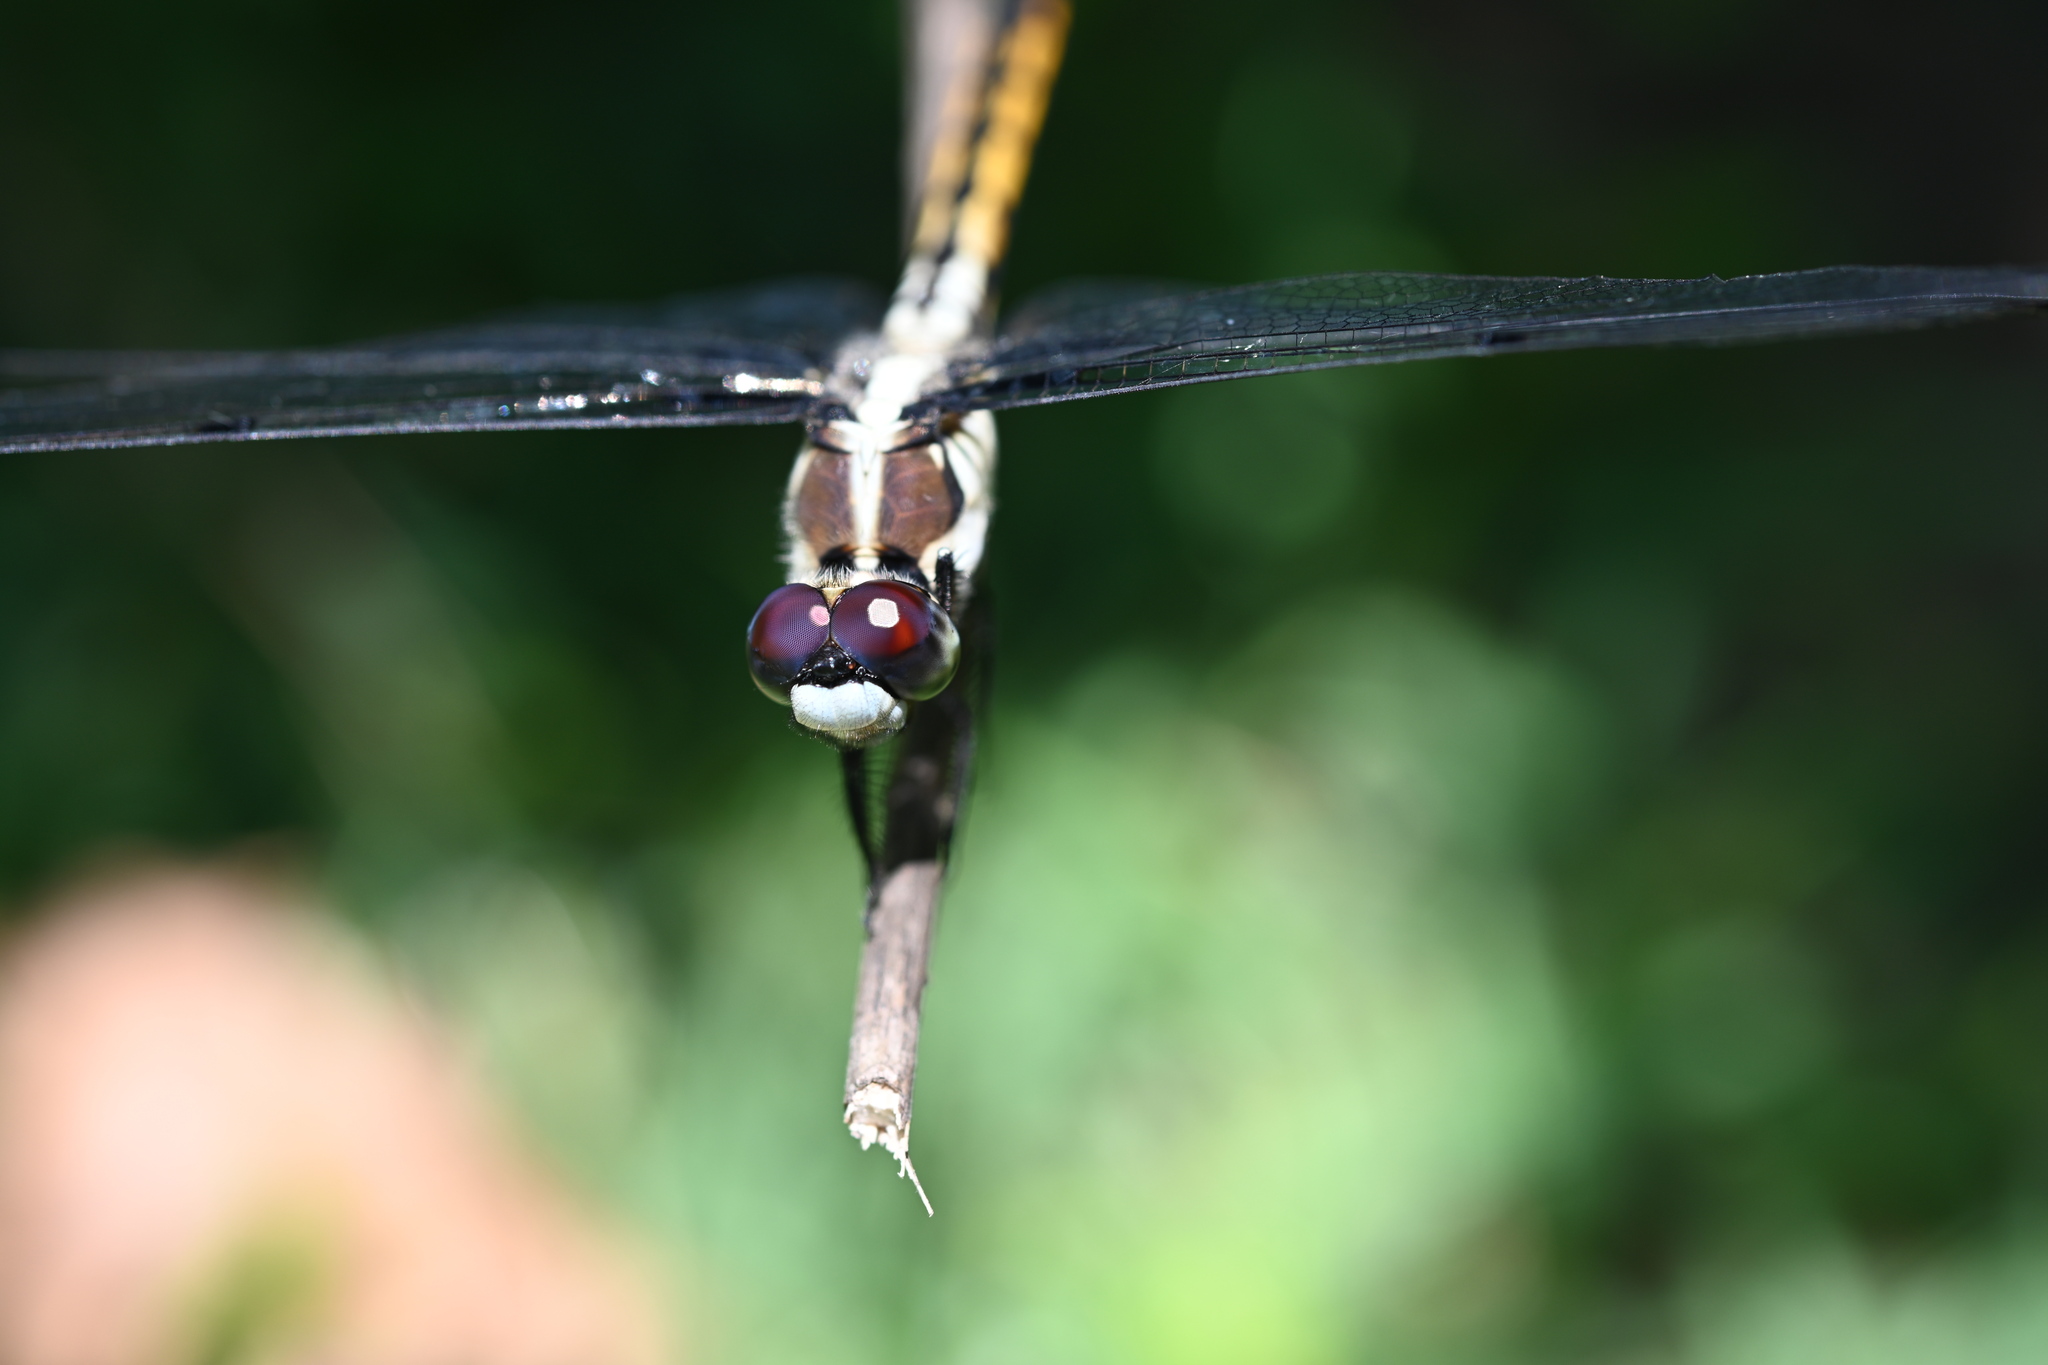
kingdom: Animalia
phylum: Arthropoda
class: Insecta
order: Odonata
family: Libellulidae
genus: Libellula
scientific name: Libellula vibrans
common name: Great blue skimmer
